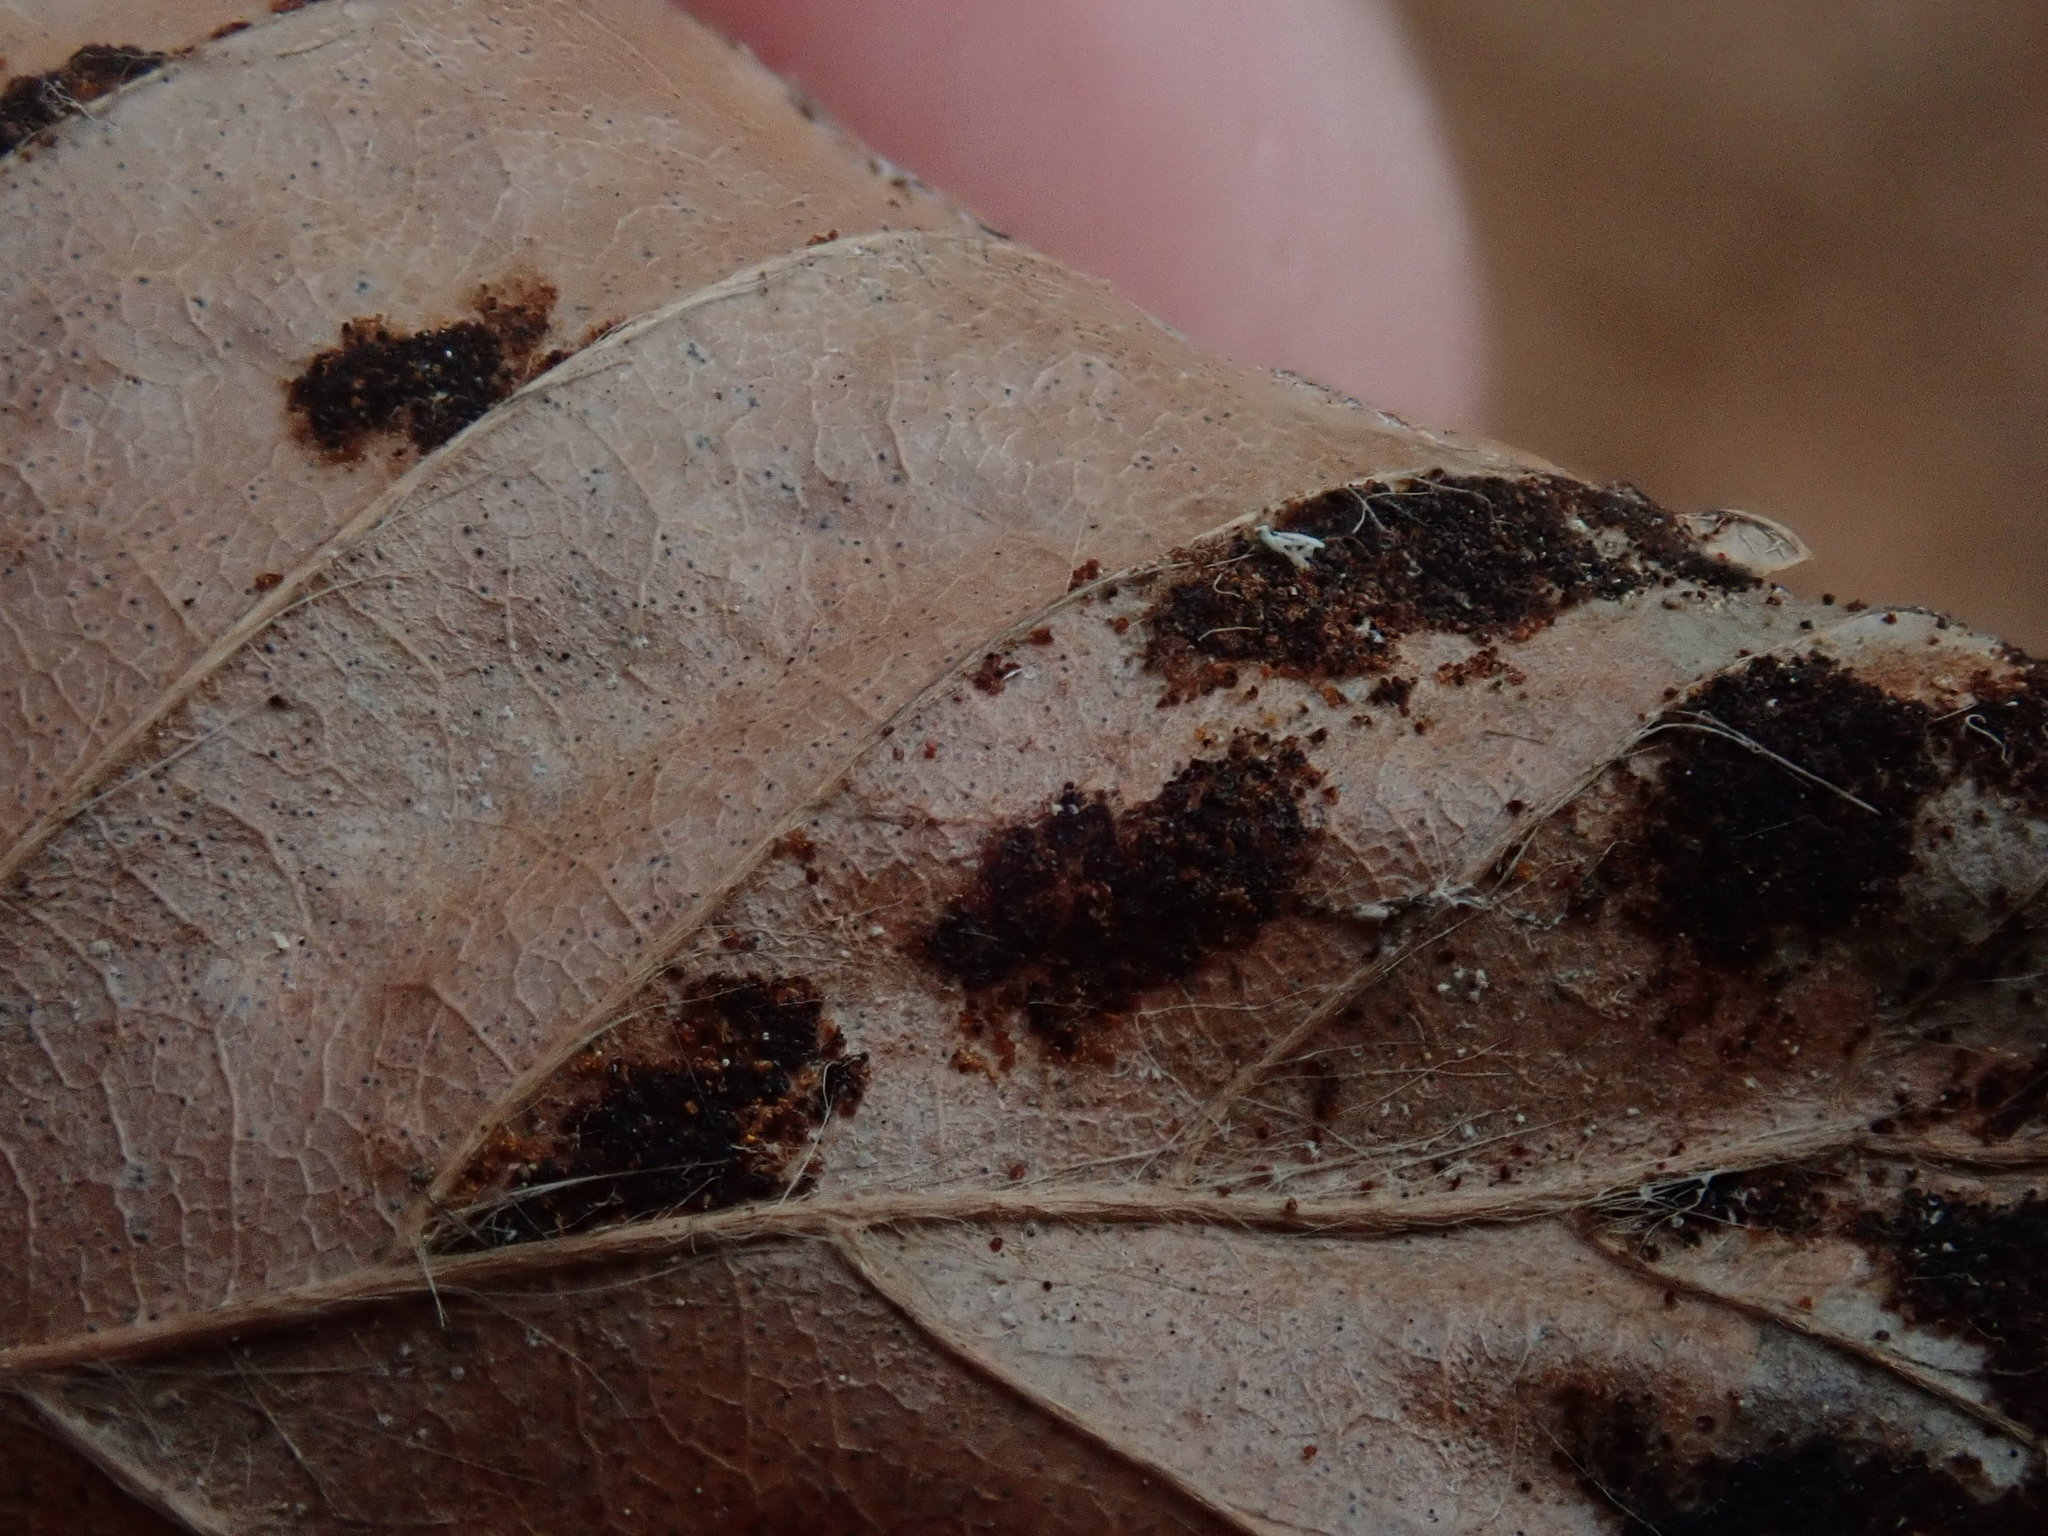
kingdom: Animalia
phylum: Arthropoda
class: Arachnida
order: Trombidiformes
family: Eriophyidae
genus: Acalitus
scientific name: Acalitus
